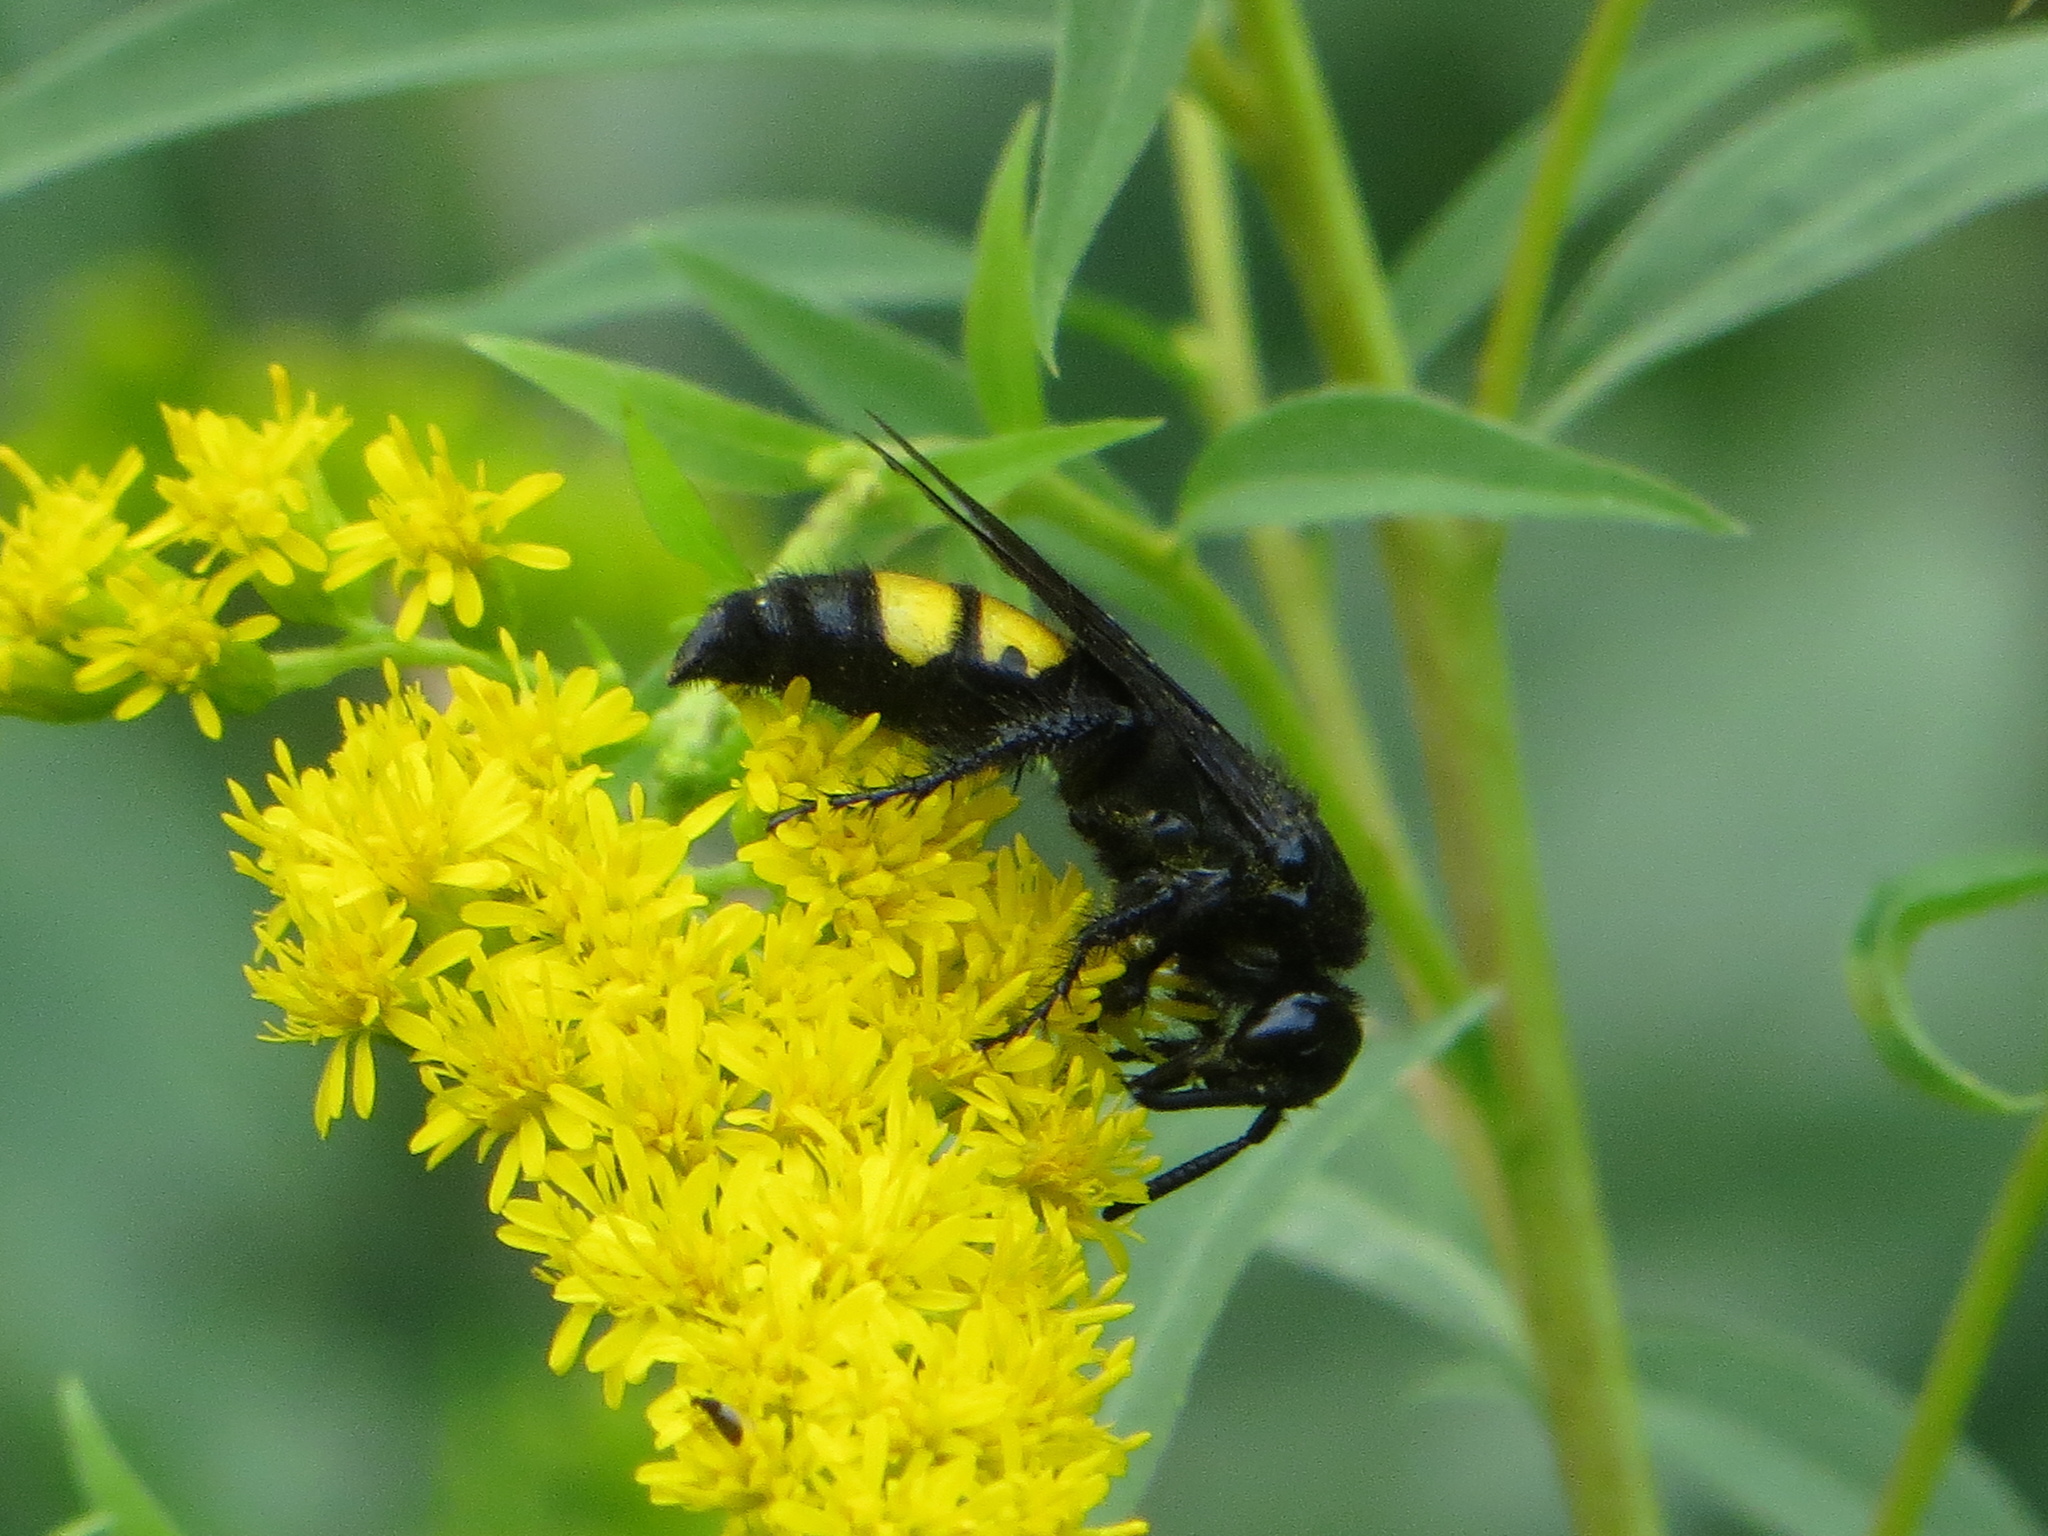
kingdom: Animalia
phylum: Arthropoda
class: Insecta
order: Hymenoptera
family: Scoliidae
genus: Scolia
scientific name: Scolia hirta
